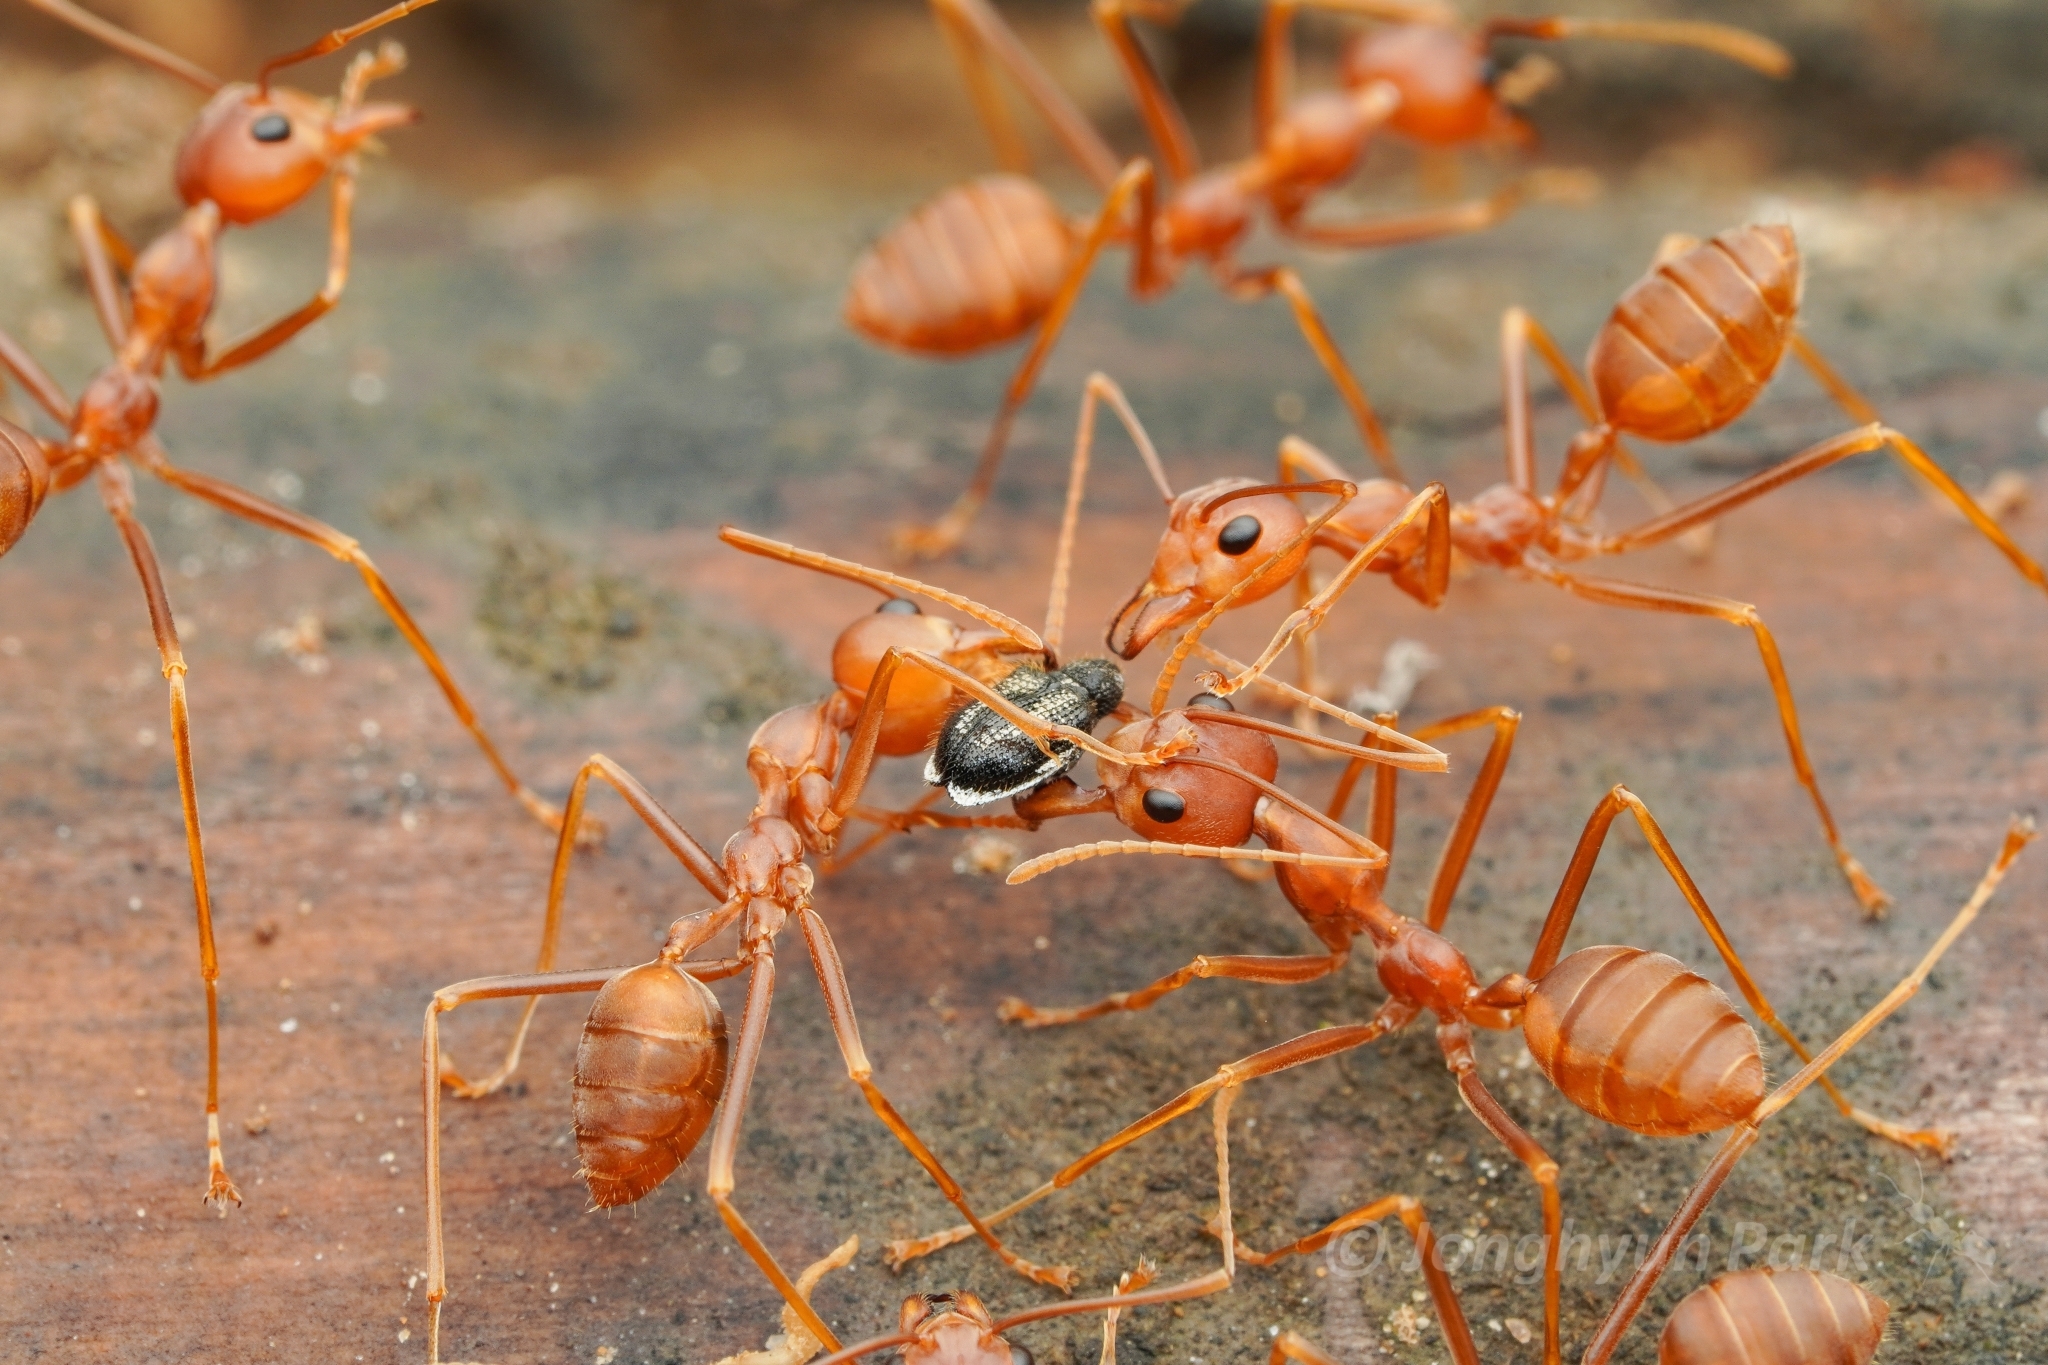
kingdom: Animalia
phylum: Arthropoda
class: Insecta
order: Hymenoptera
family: Formicidae
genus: Oecophylla
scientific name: Oecophylla smaragdina
